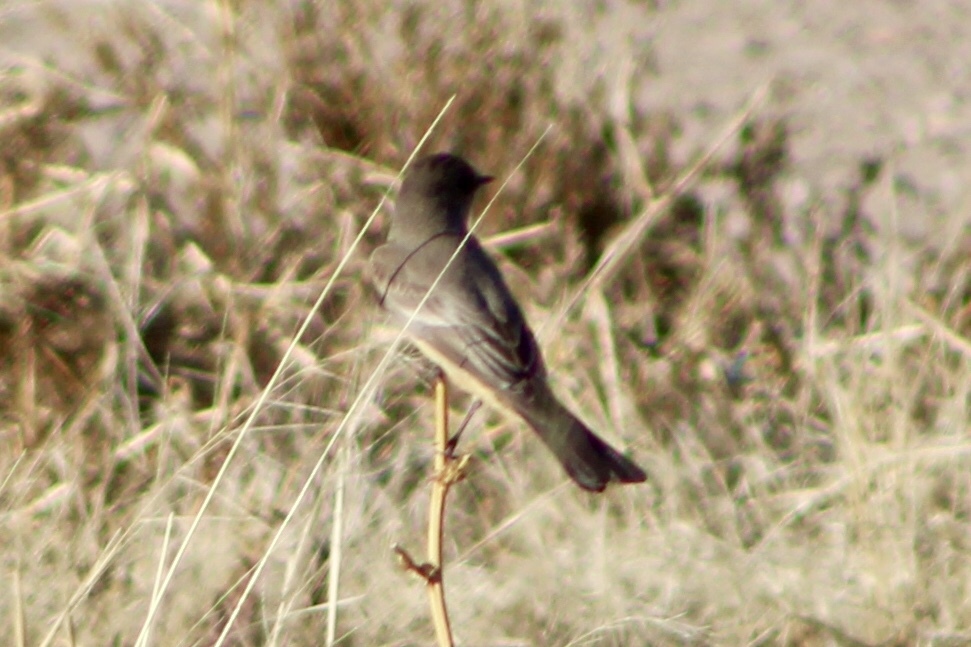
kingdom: Animalia
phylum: Chordata
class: Aves
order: Passeriformes
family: Tyrannidae
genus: Sayornis
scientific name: Sayornis saya
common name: Say's phoebe
